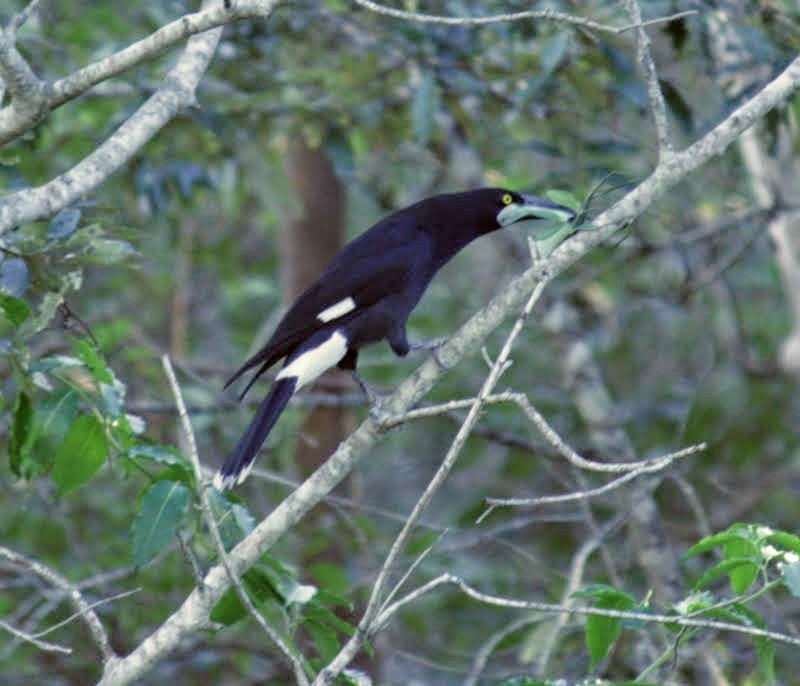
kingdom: Animalia
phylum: Chordata
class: Aves
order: Passeriformes
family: Cracticidae
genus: Strepera
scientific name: Strepera graculina
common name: Pied currawong
